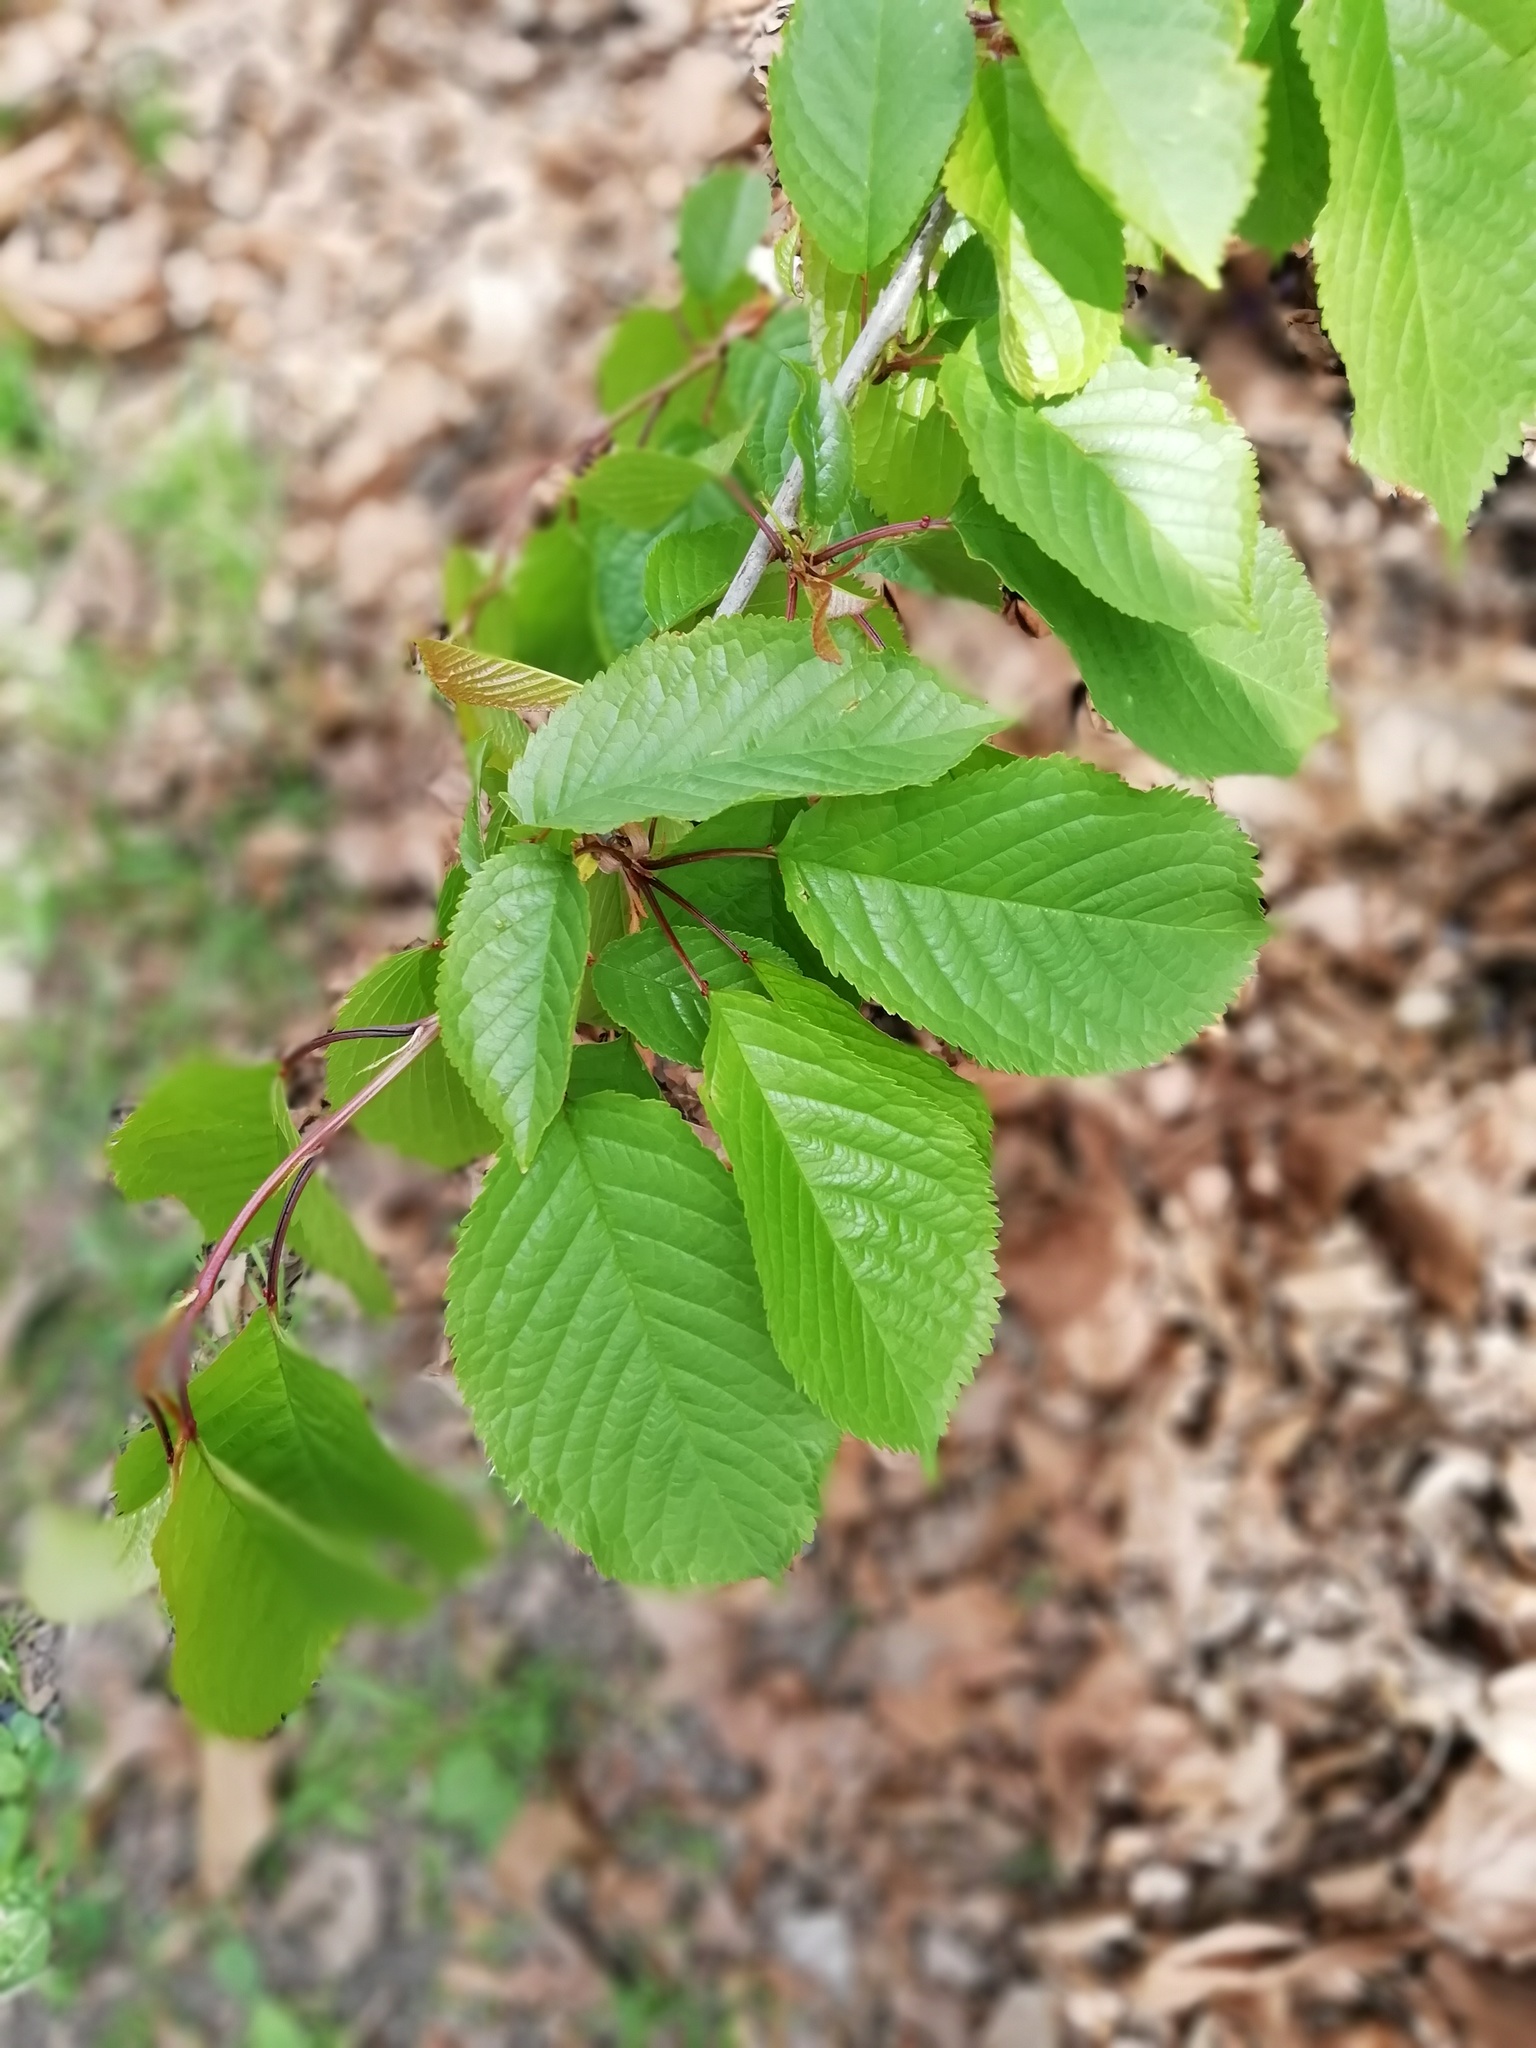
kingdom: Plantae
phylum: Tracheophyta
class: Magnoliopsida
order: Rosales
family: Rosaceae
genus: Prunus
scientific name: Prunus avium
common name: Sweet cherry
